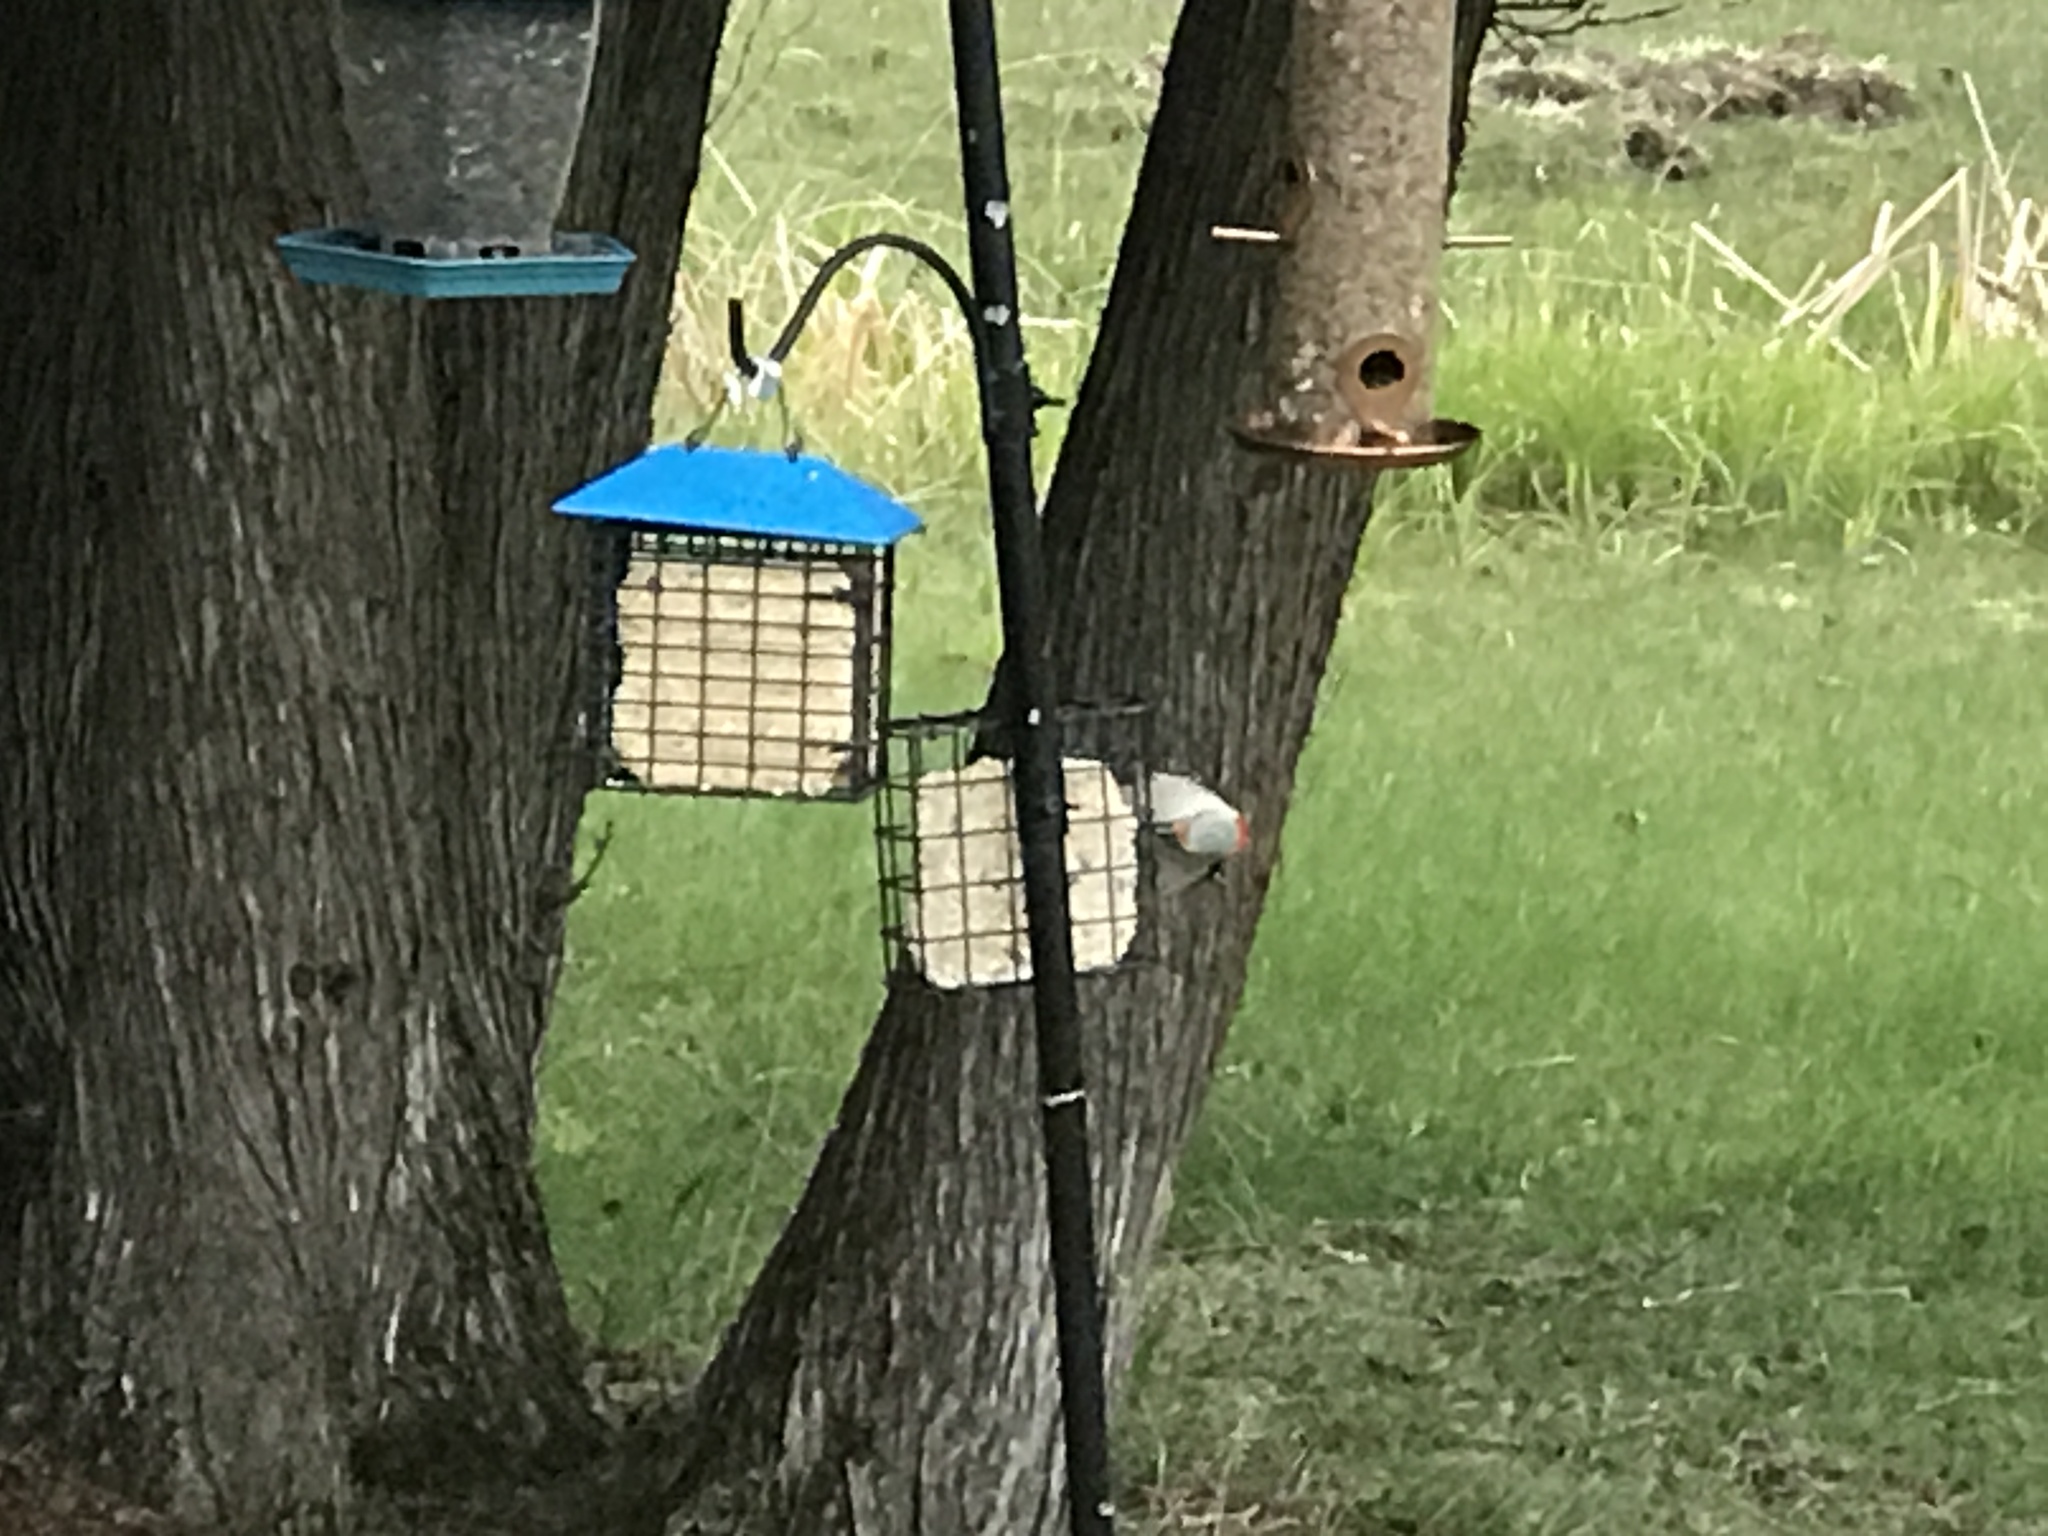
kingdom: Animalia
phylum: Chordata
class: Aves
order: Piciformes
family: Picidae
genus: Melanerpes
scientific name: Melanerpes carolinus
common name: Red-bellied woodpecker
